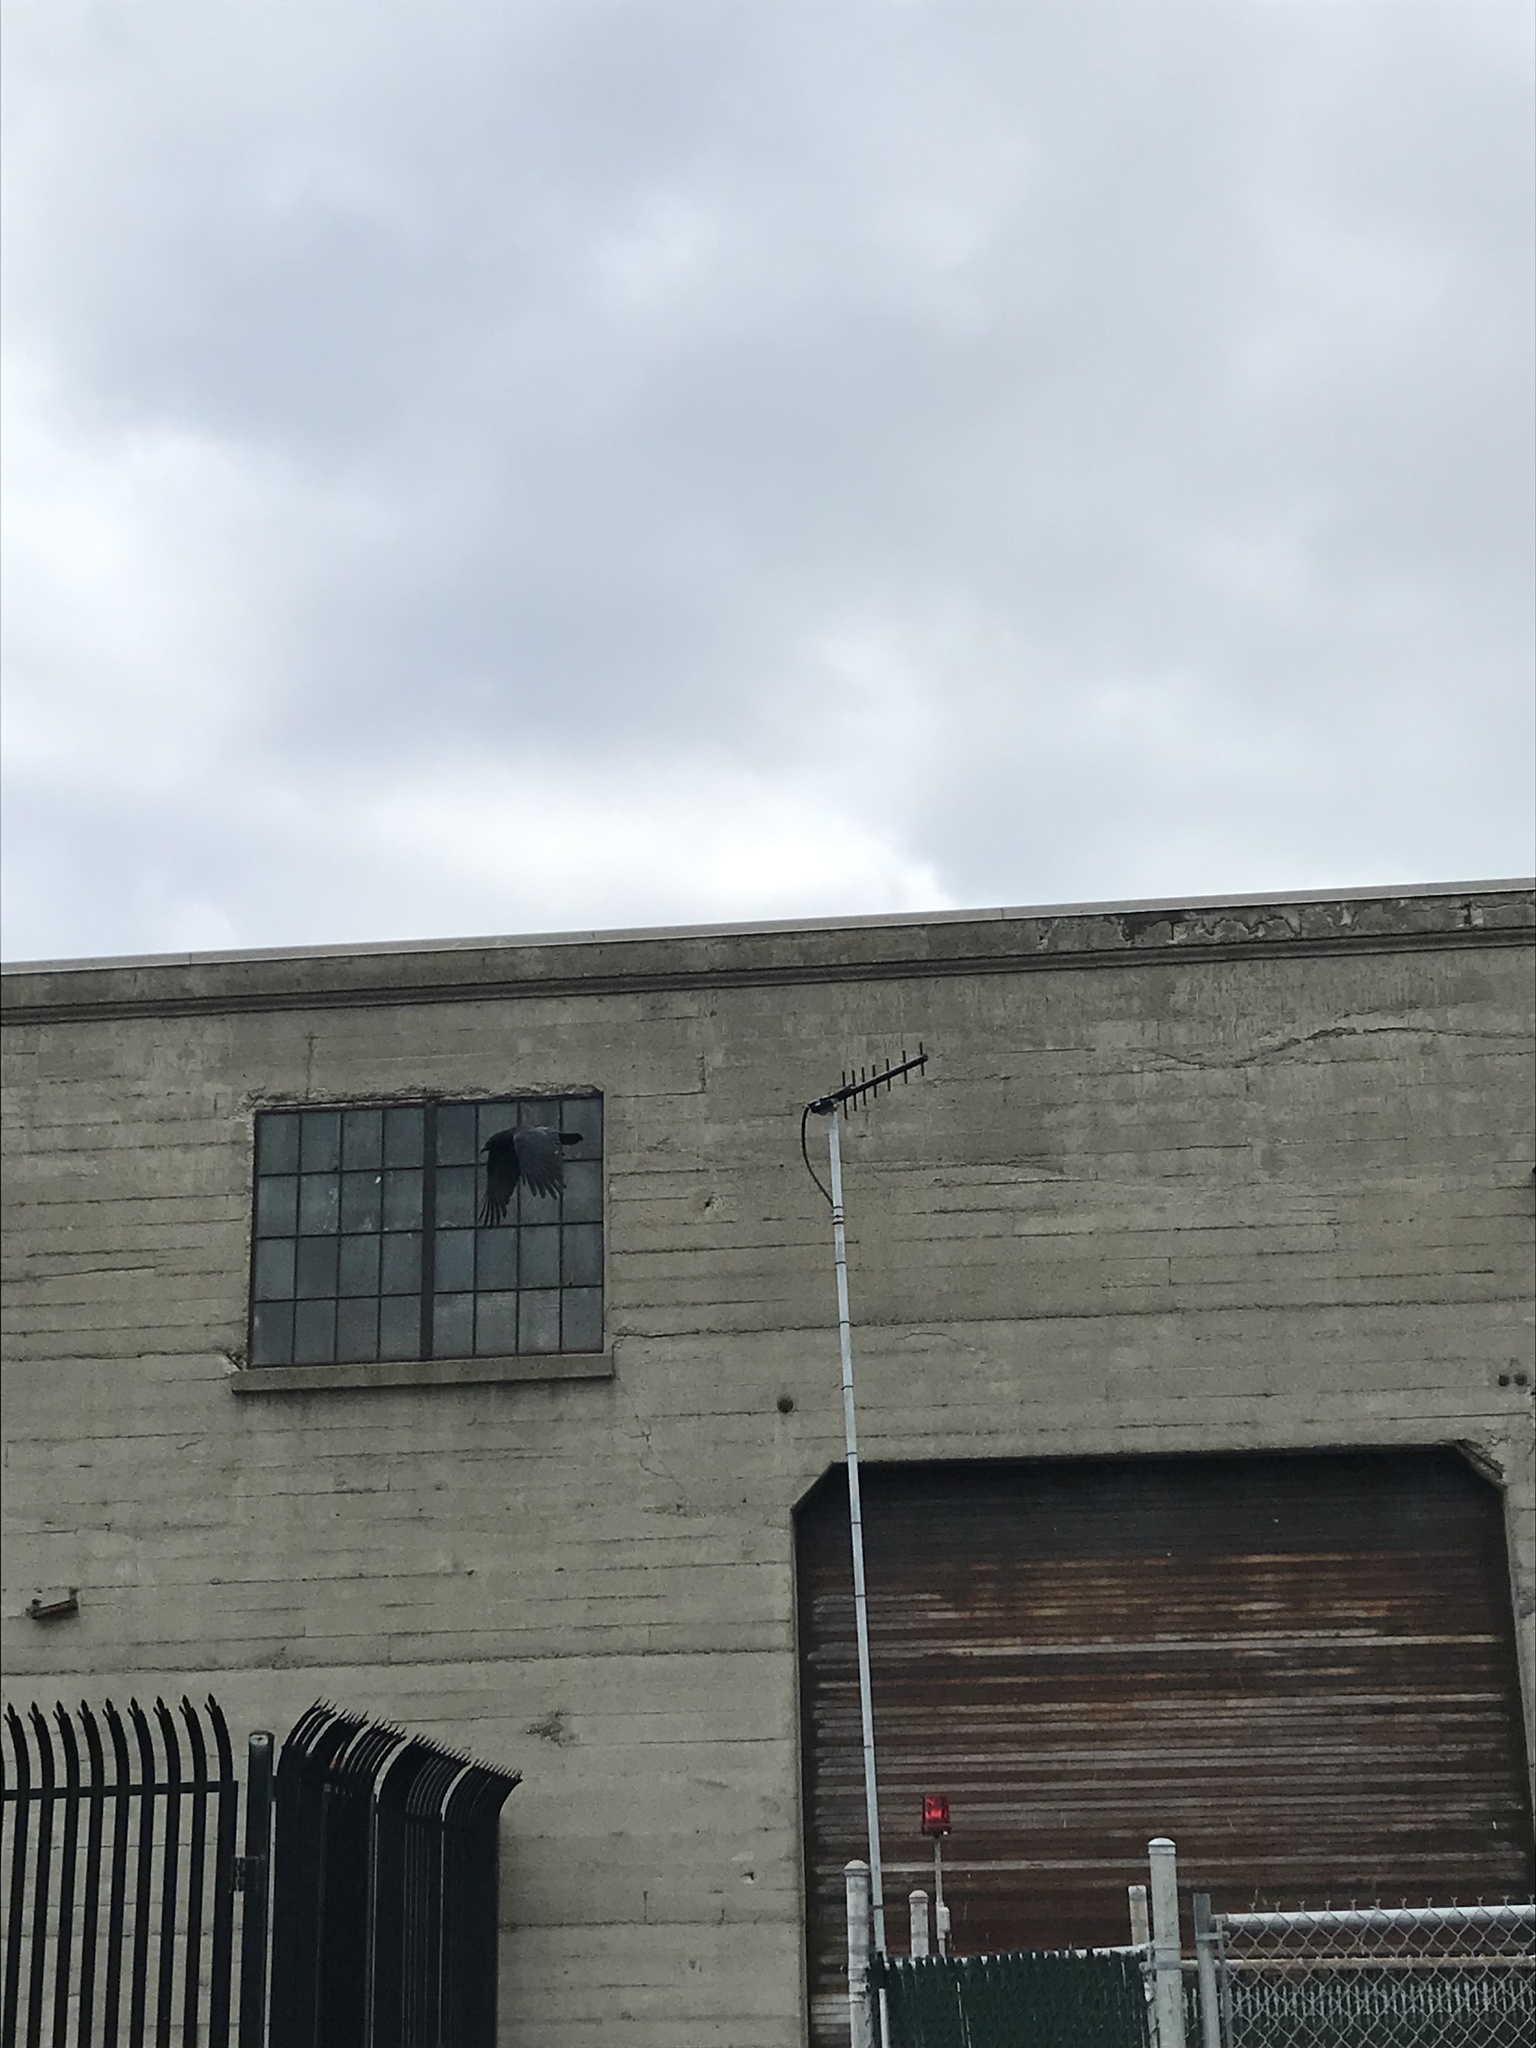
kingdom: Animalia
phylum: Chordata
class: Aves
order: Passeriformes
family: Corvidae
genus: Corvus
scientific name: Corvus brachyrhynchos
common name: American crow
